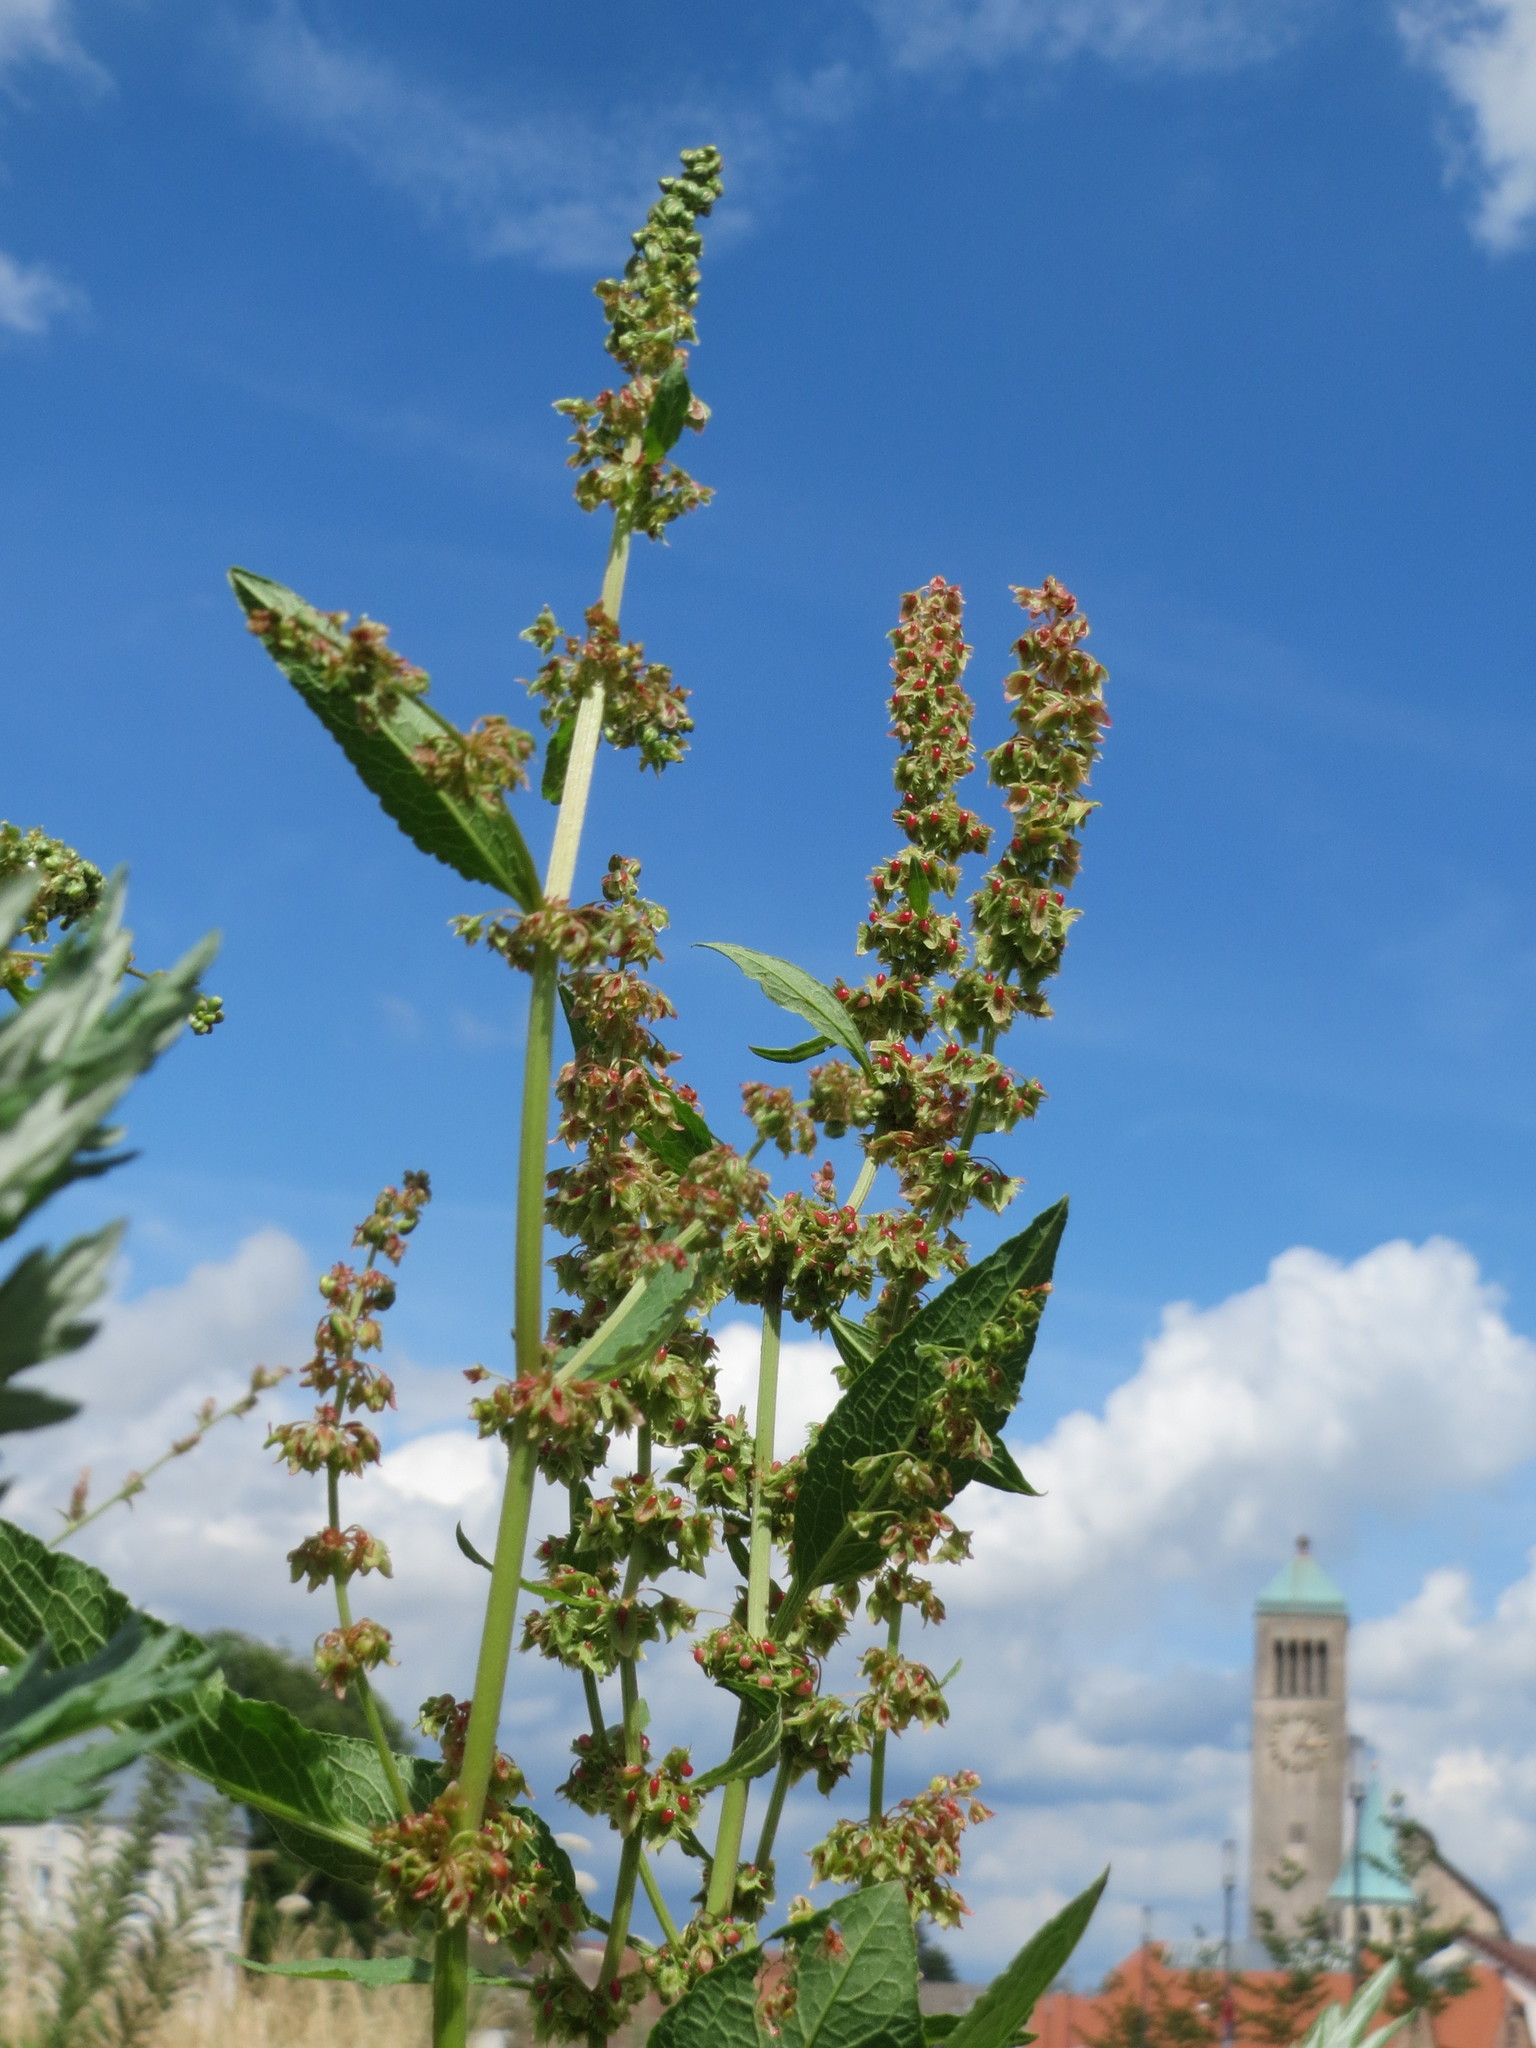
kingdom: Plantae
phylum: Tracheophyta
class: Magnoliopsida
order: Caryophyllales
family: Polygonaceae
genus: Rumex
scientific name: Rumex obtusifolius
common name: Bitter dock
